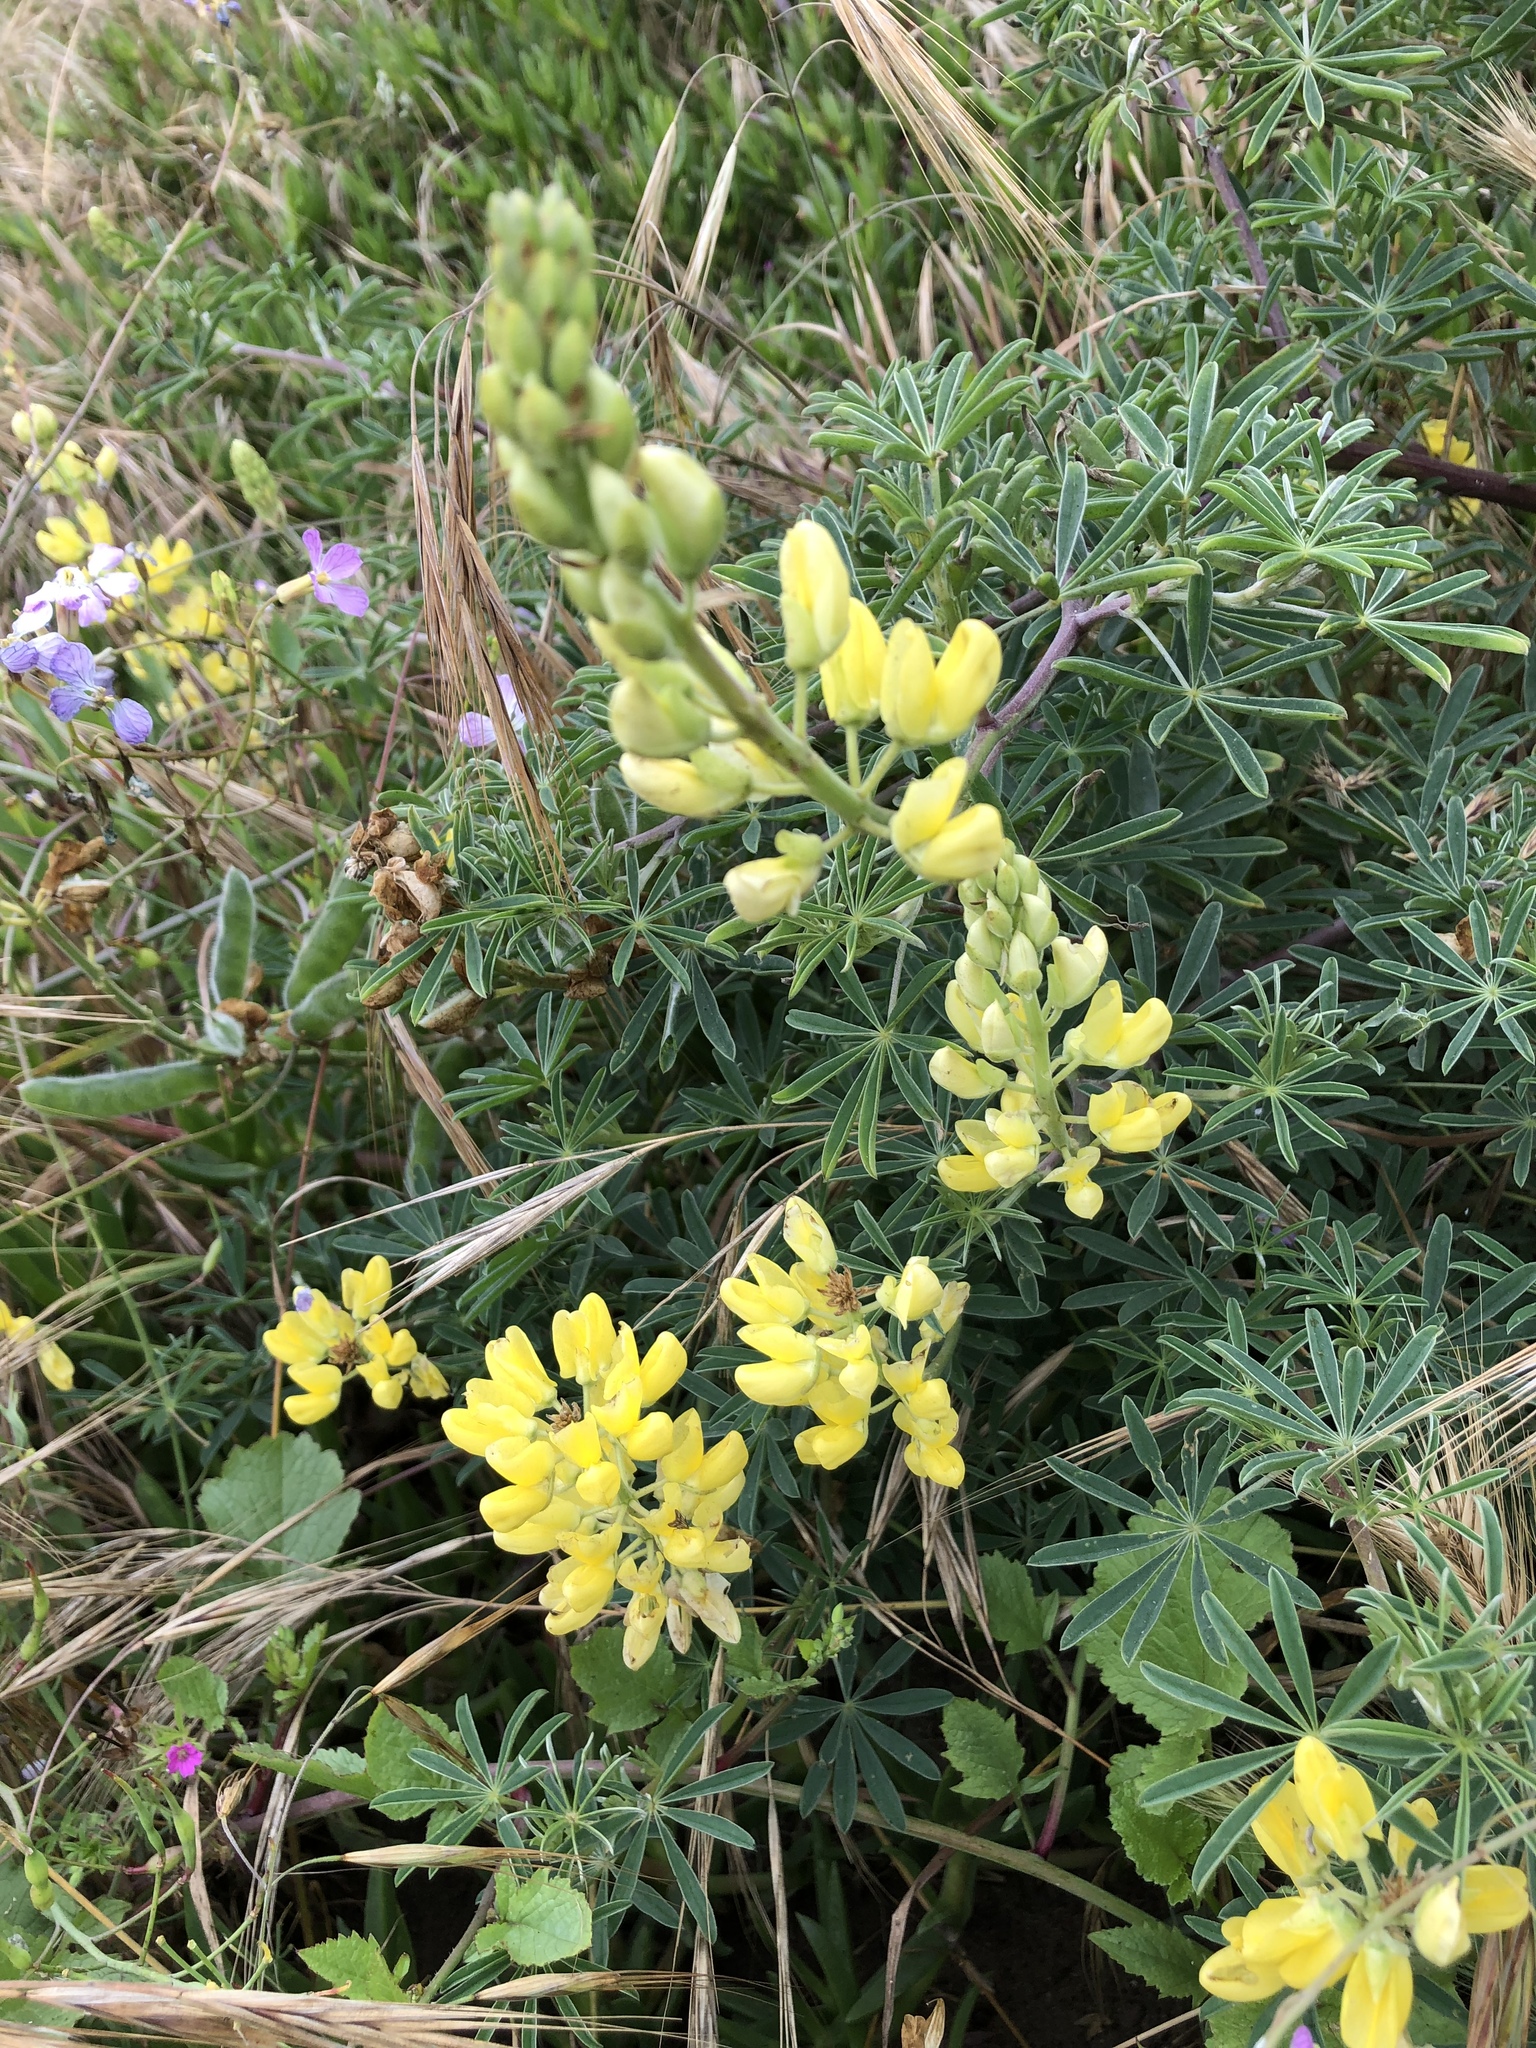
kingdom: Plantae
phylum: Tracheophyta
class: Magnoliopsida
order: Fabales
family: Fabaceae
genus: Lupinus
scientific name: Lupinus arboreus
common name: Yellow bush lupine
